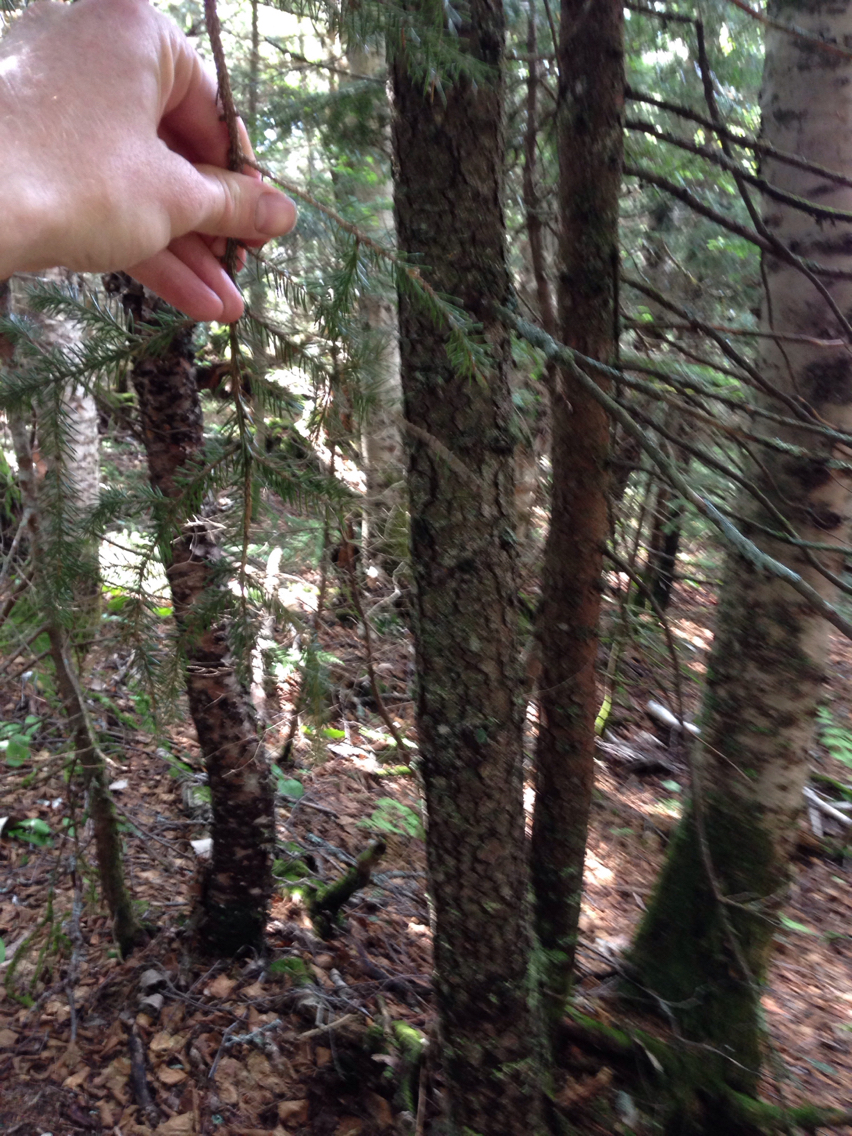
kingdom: Plantae
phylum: Tracheophyta
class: Pinopsida
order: Pinales
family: Pinaceae
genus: Picea
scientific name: Picea rubens
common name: Red spruce
